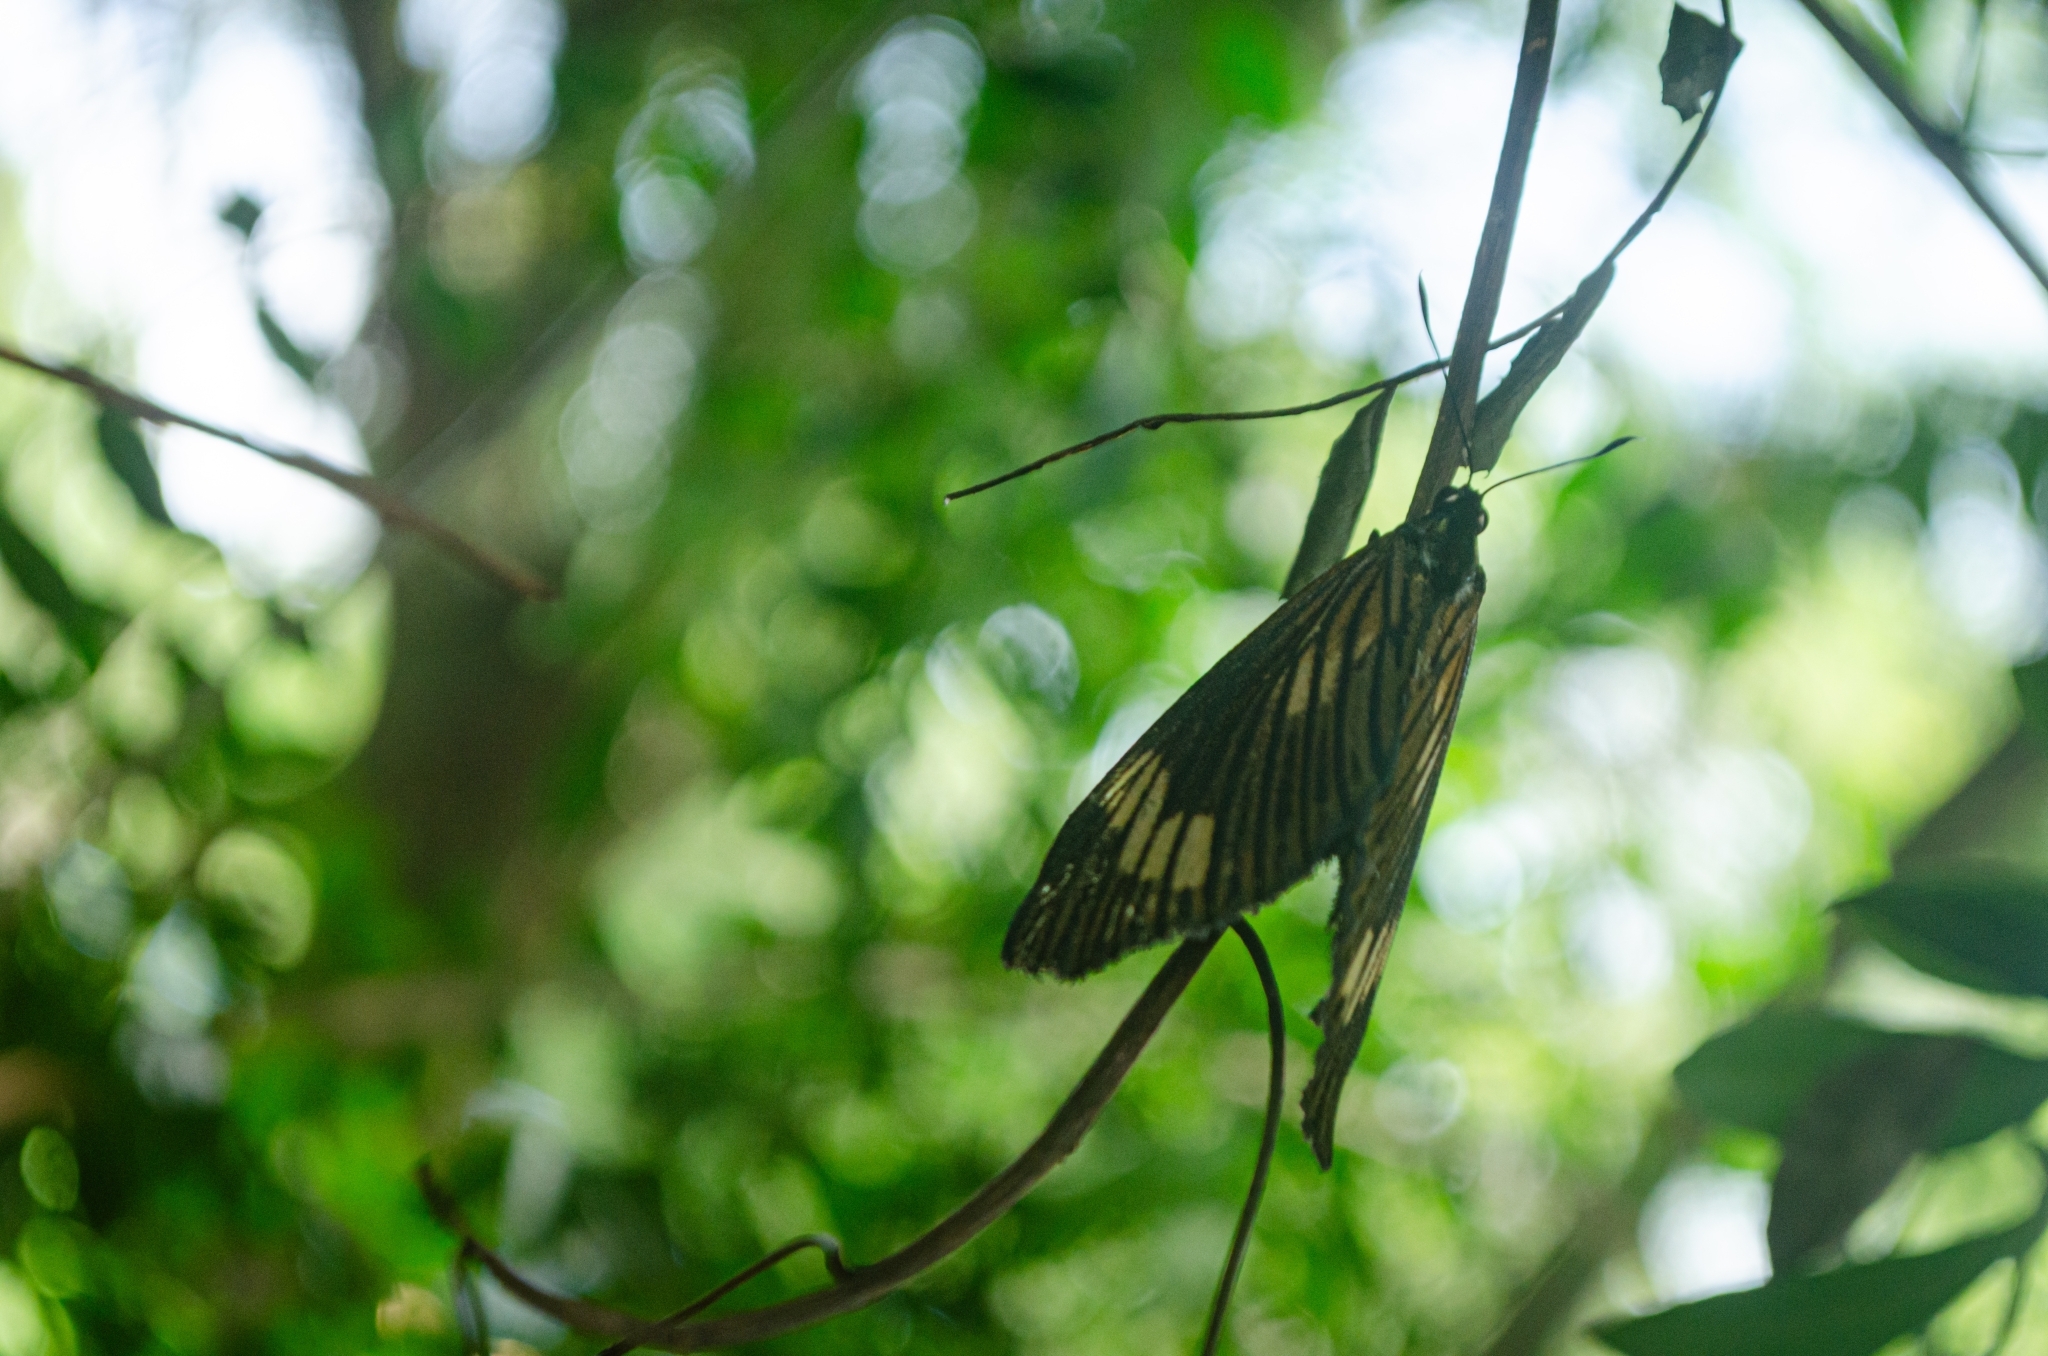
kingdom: Animalia
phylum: Arthropoda
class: Insecta
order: Lepidoptera
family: Castniidae
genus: Imara
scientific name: Imara
